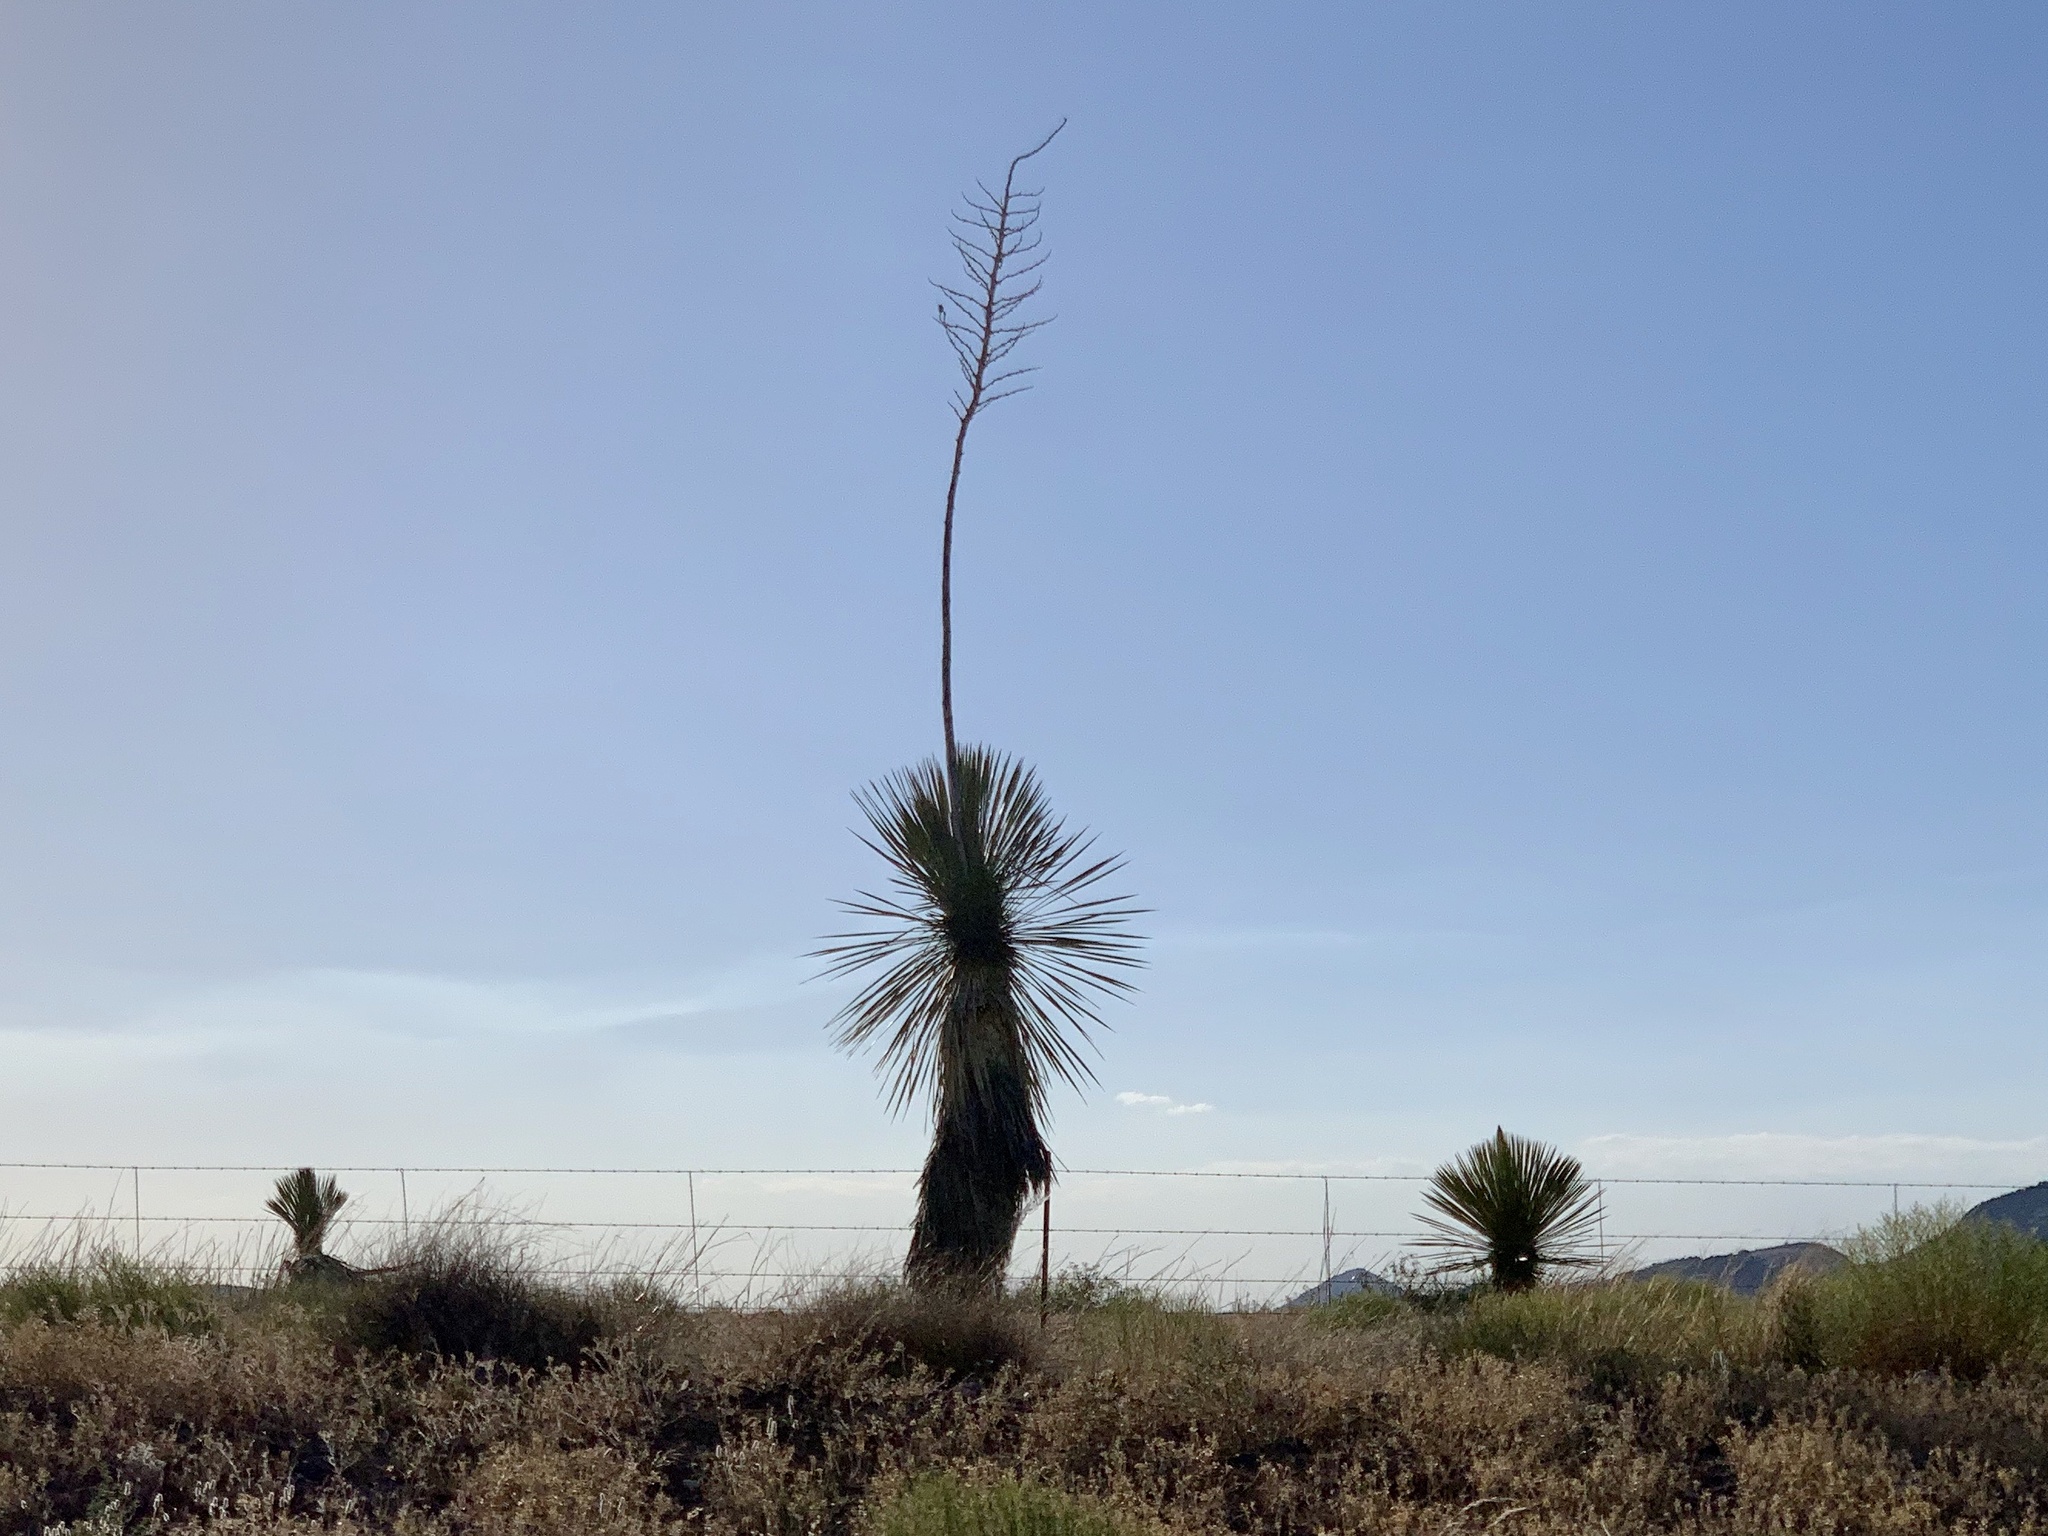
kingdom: Plantae
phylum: Tracheophyta
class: Liliopsida
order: Asparagales
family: Asparagaceae
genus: Yucca
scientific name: Yucca elata
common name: Palmella
